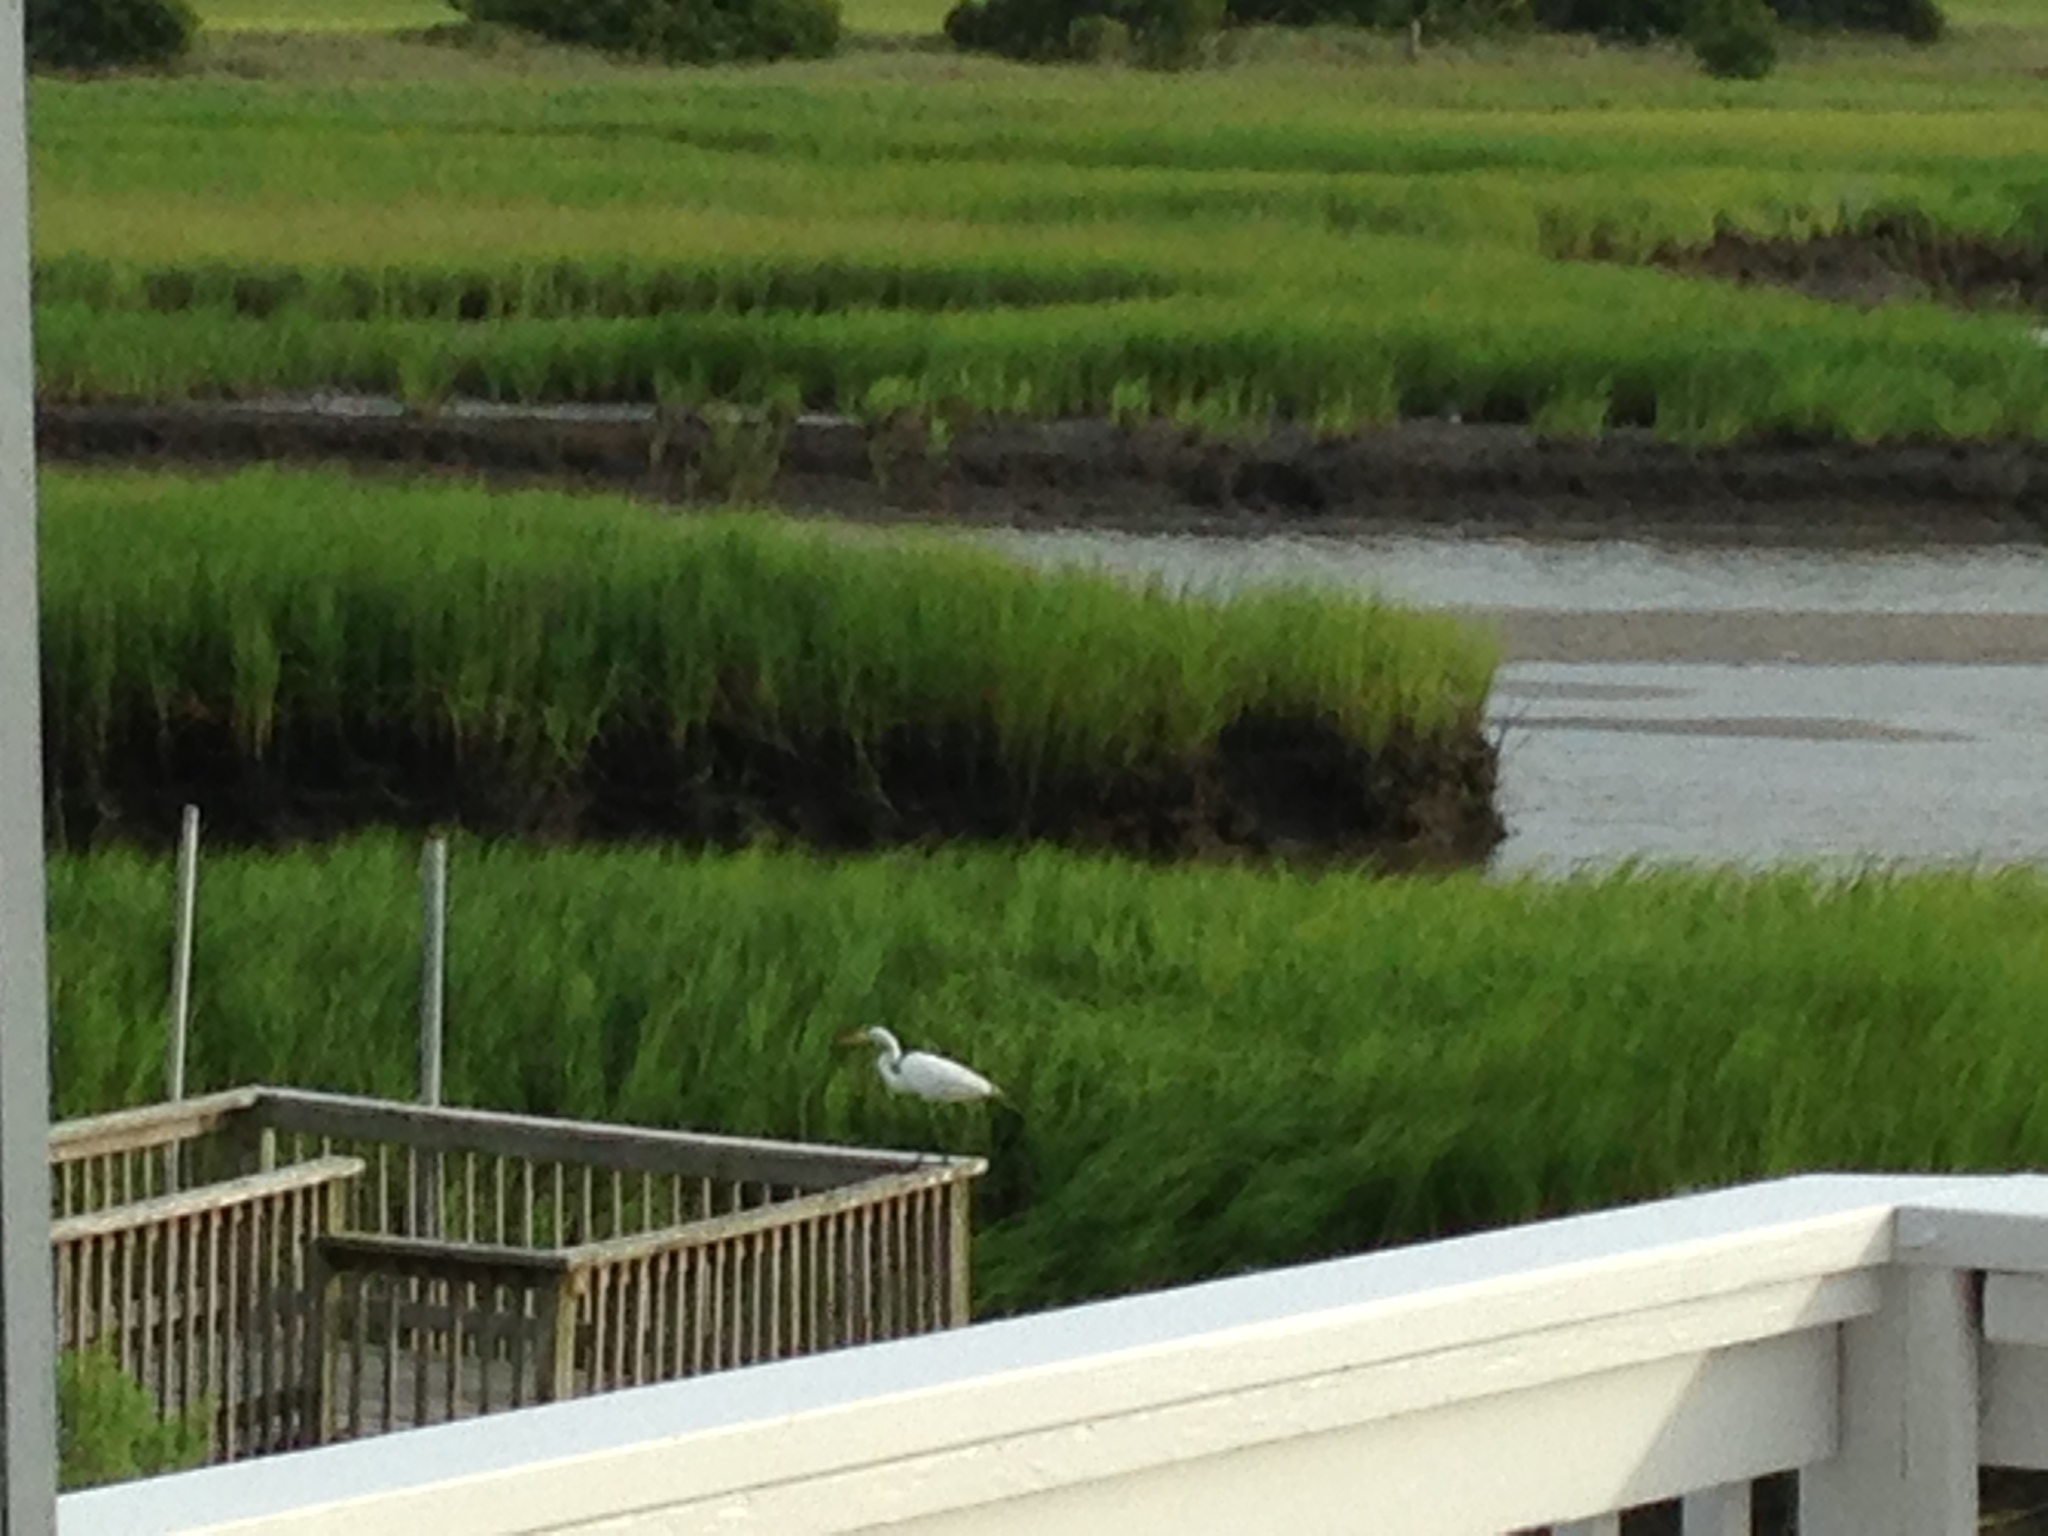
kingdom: Animalia
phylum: Chordata
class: Aves
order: Pelecaniformes
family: Ardeidae
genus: Ardea
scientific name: Ardea alba
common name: Great egret
